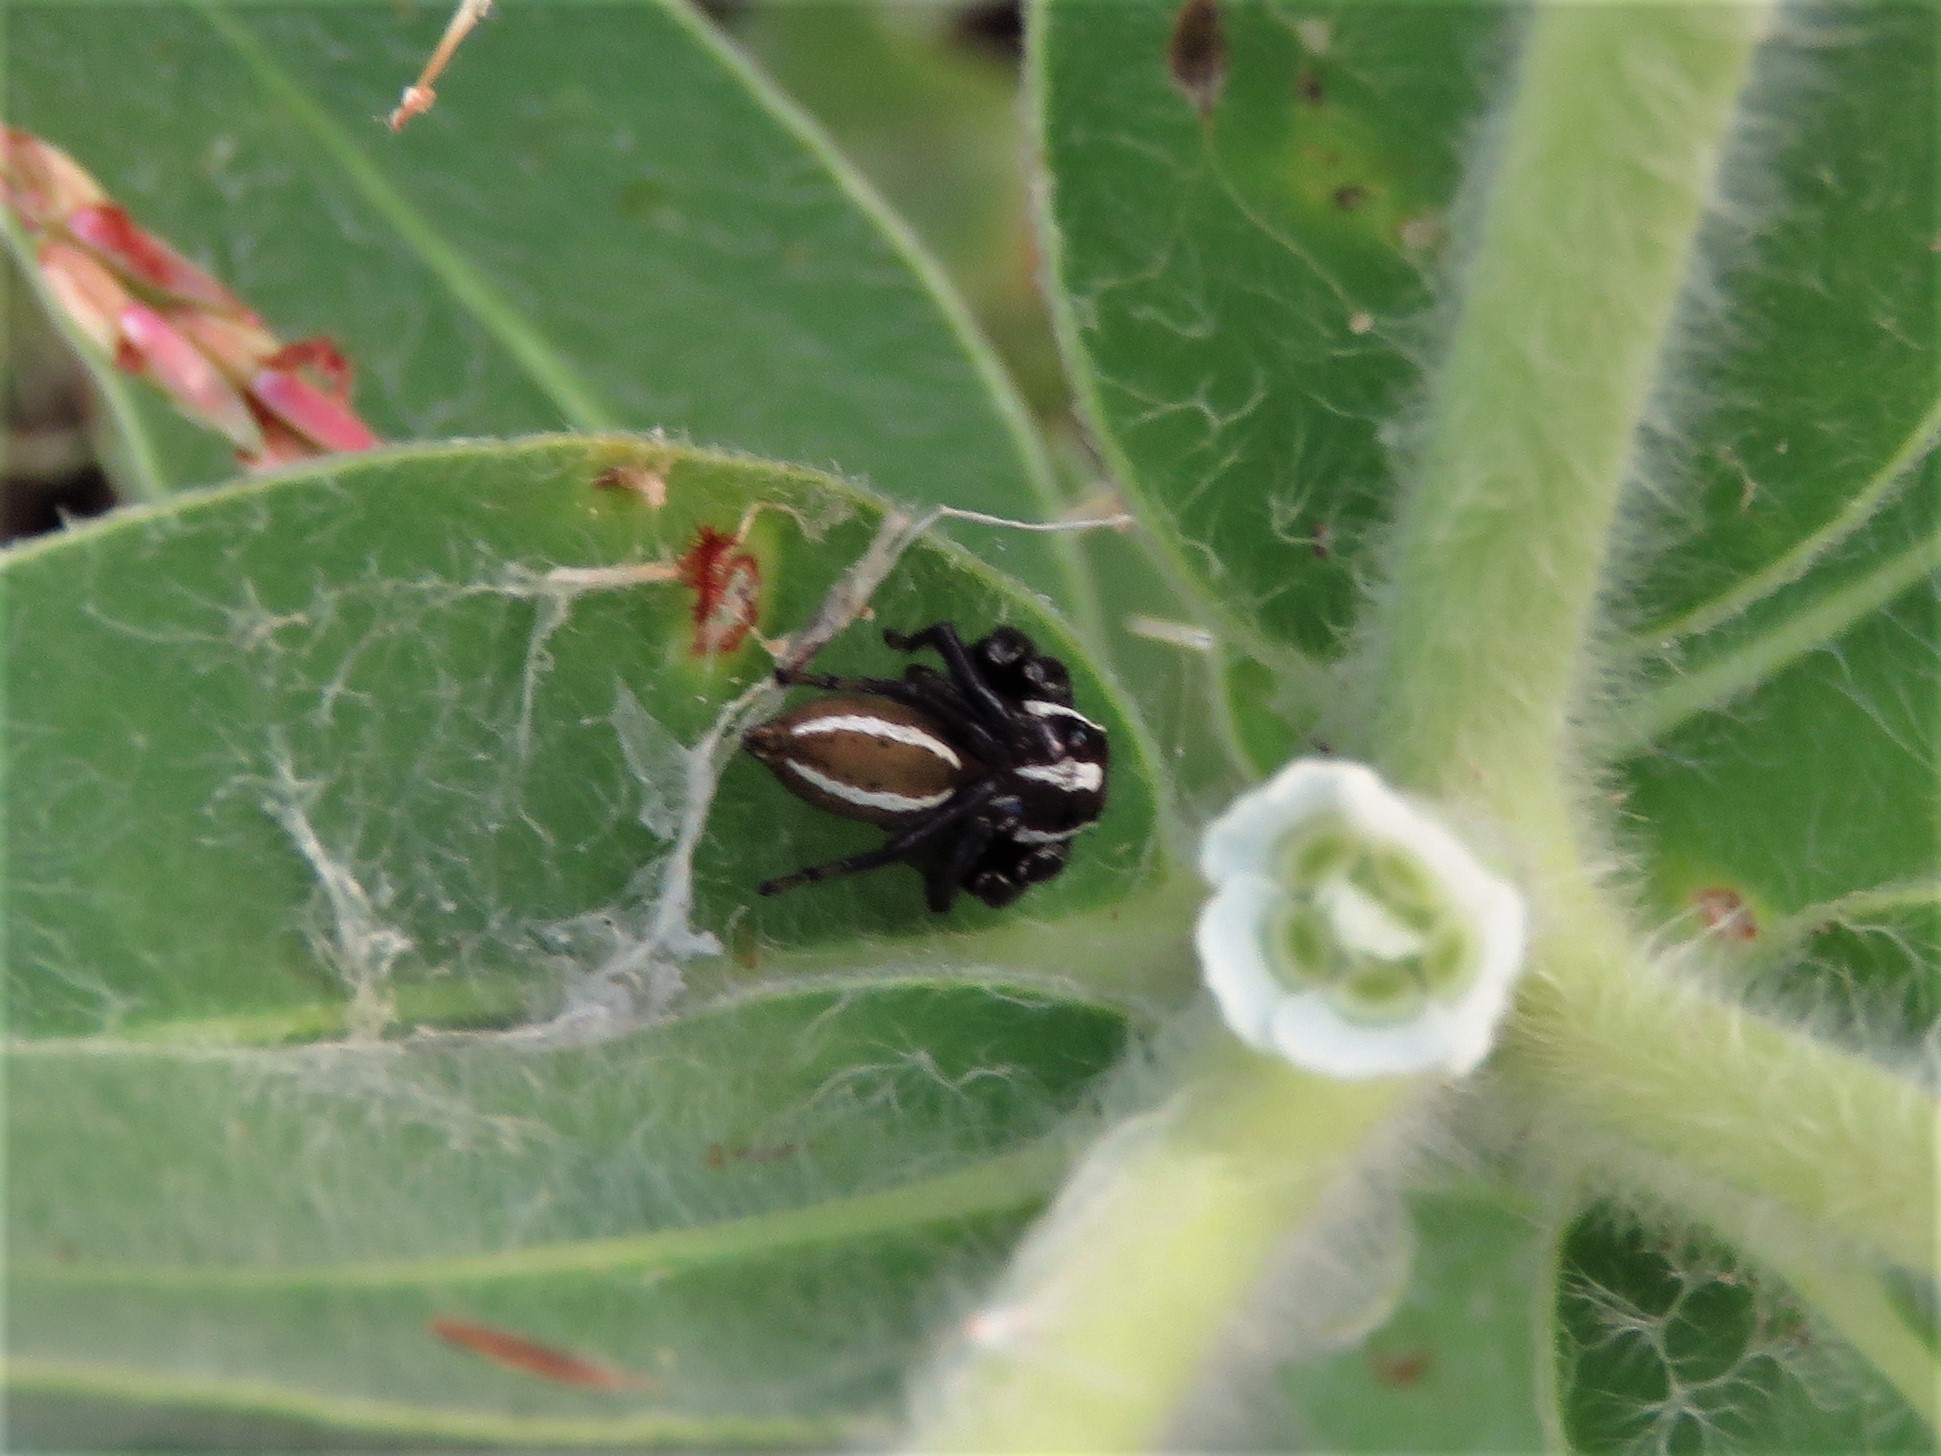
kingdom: Animalia
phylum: Arthropoda
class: Arachnida
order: Araneae
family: Salticidae
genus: Colonus
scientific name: Colonus puerperus
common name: Jumping spiders
